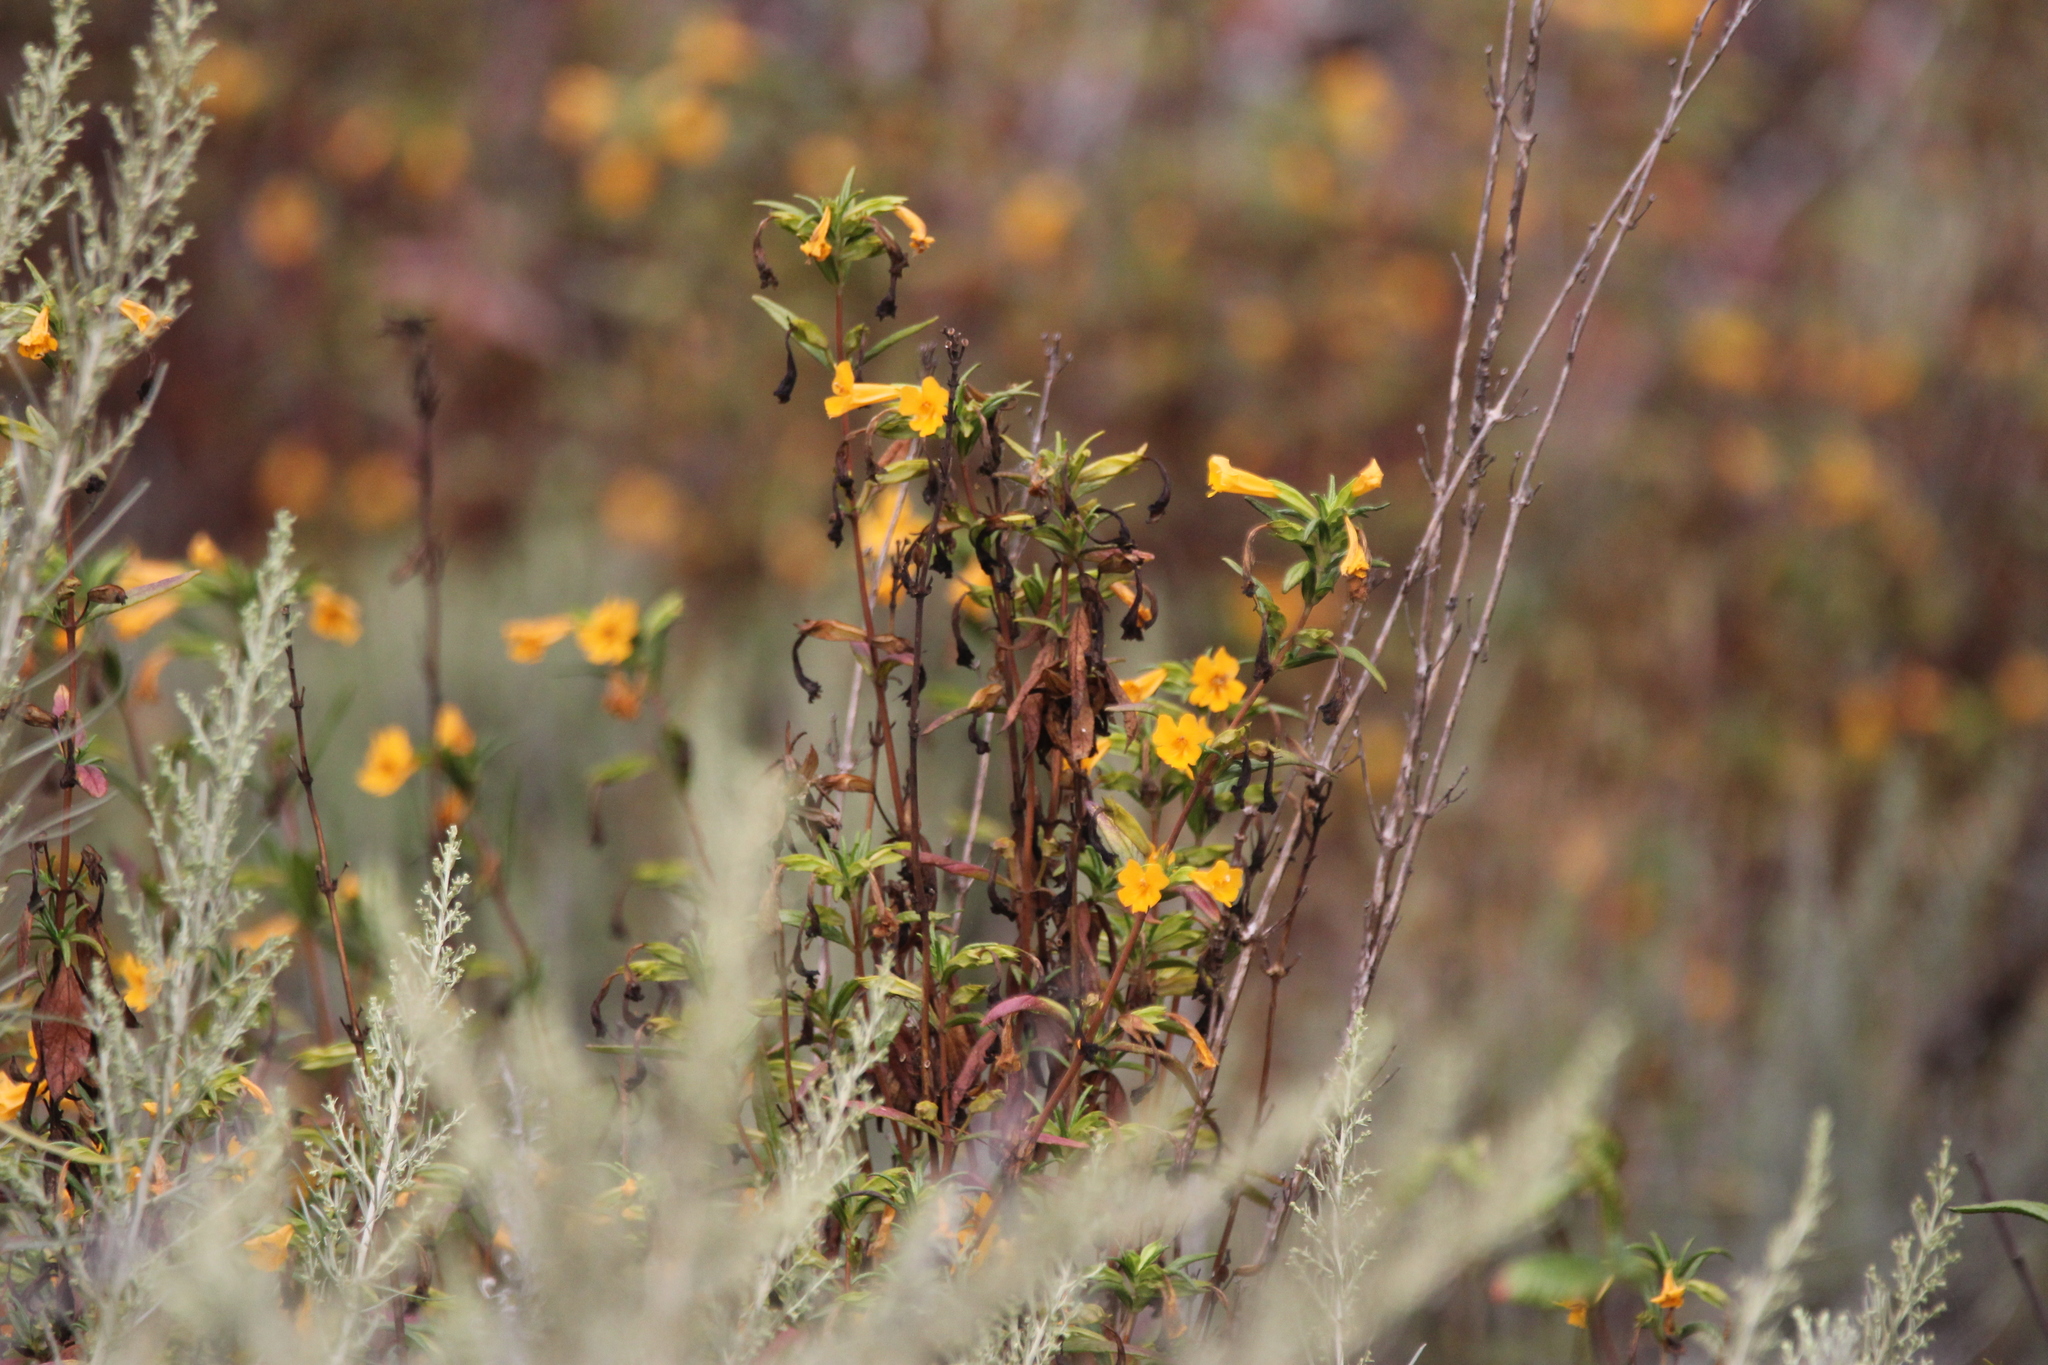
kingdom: Plantae
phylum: Tracheophyta
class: Magnoliopsida
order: Lamiales
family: Phrymaceae
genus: Diplacus
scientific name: Diplacus aurantiacus
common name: Bush monkey-flower
